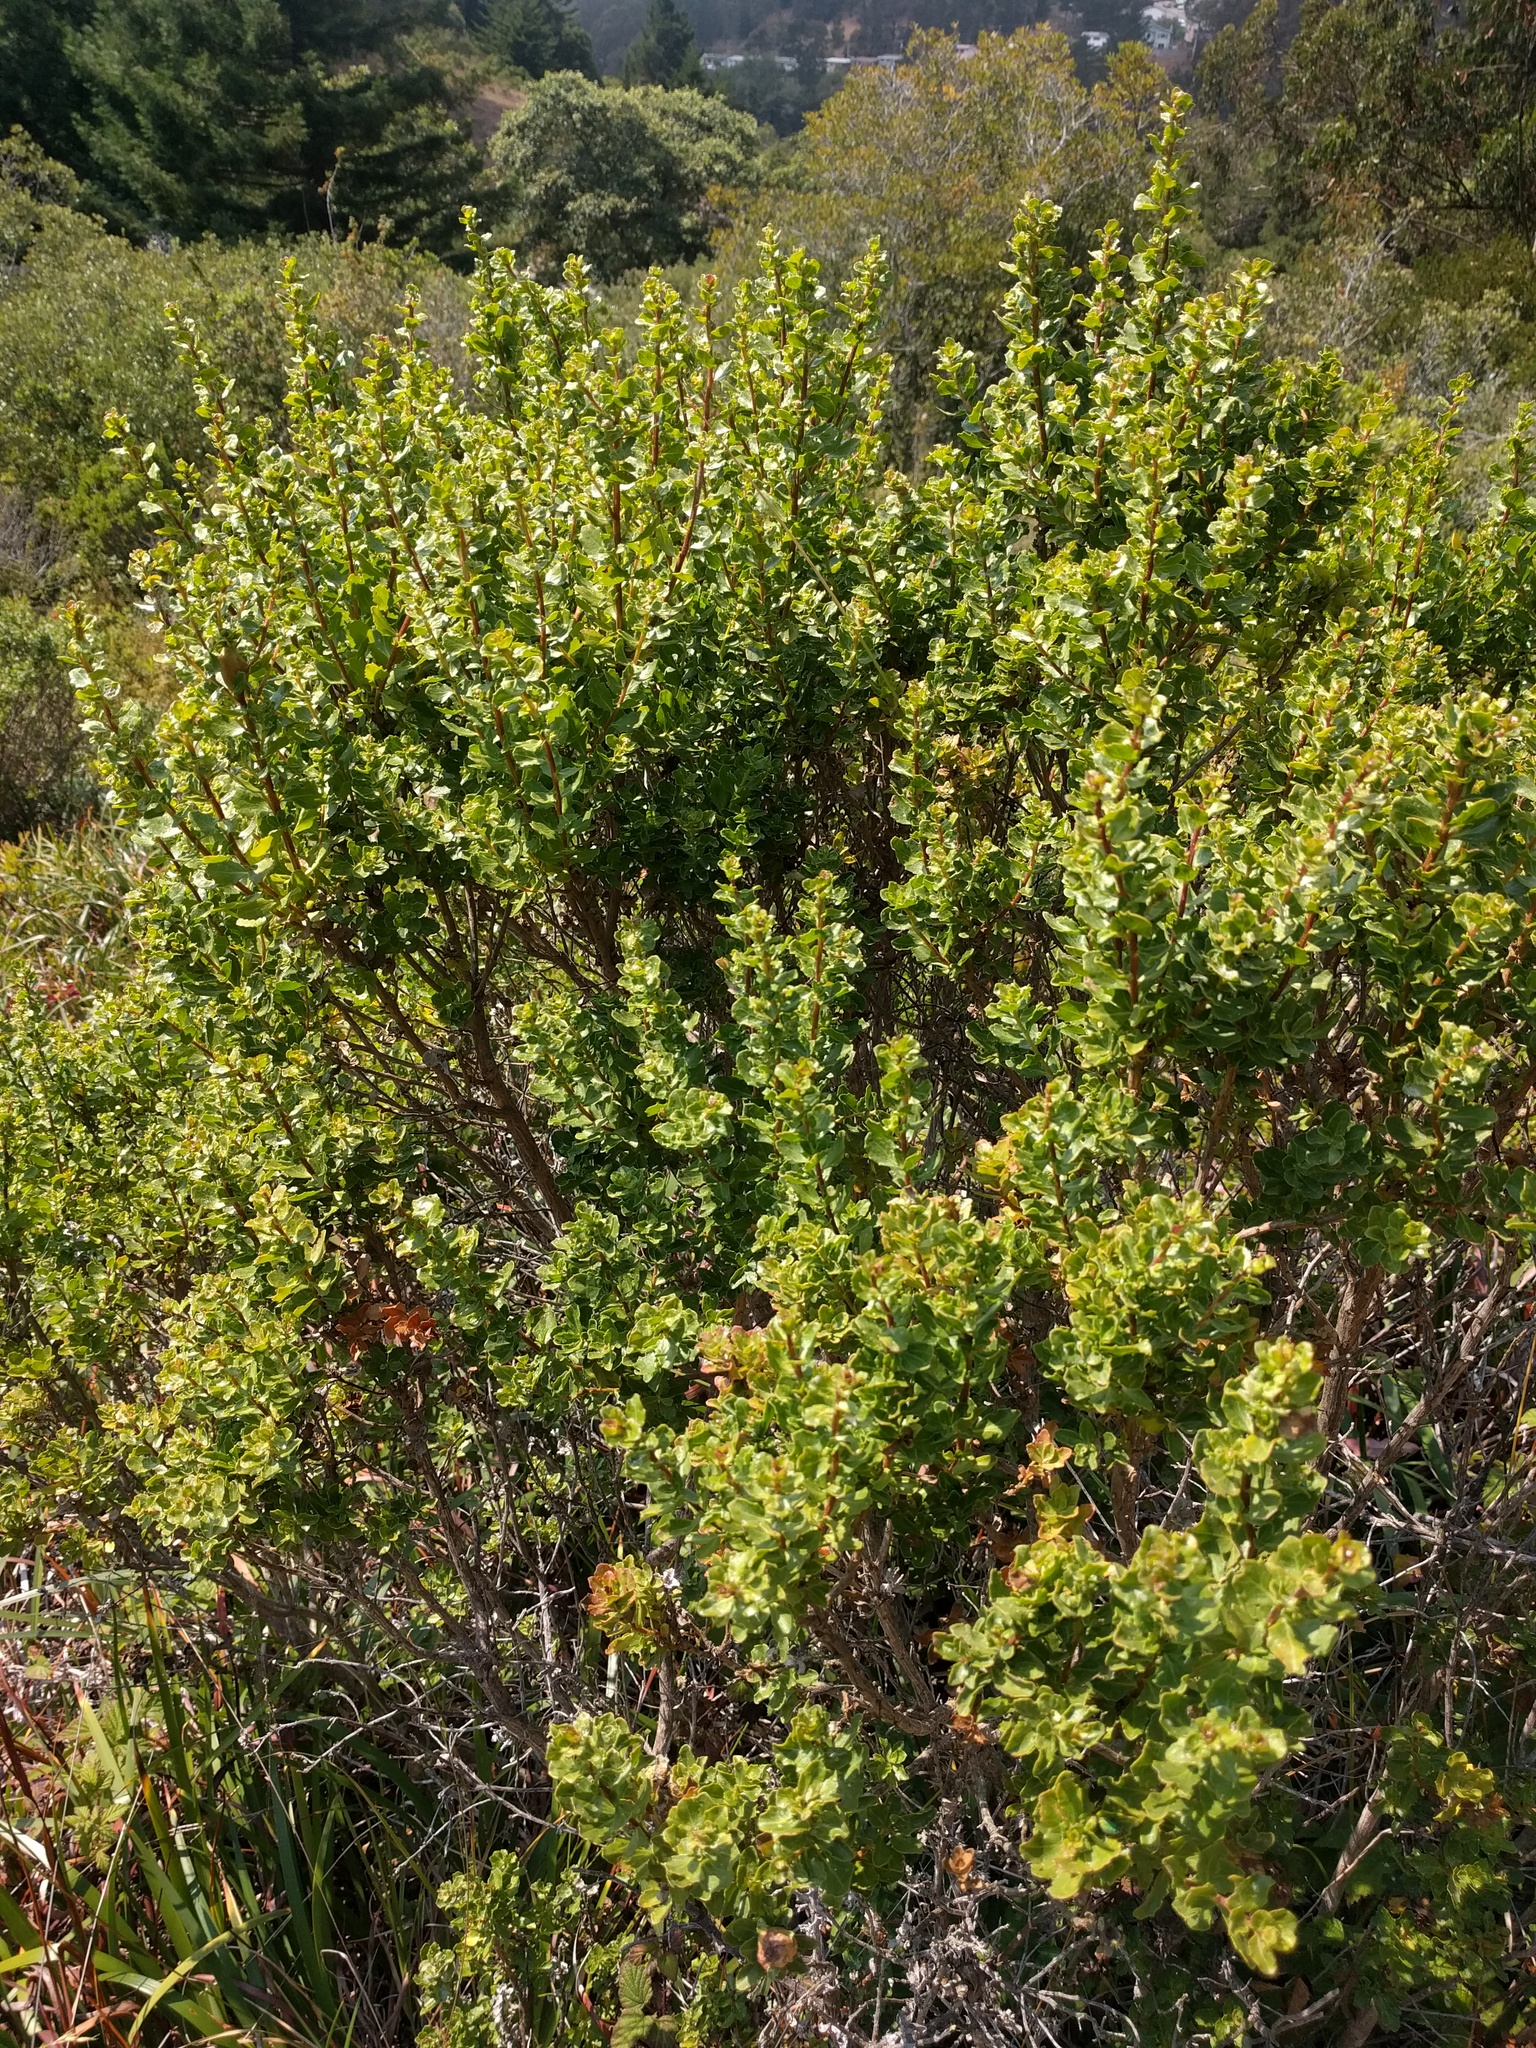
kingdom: Plantae
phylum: Tracheophyta
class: Magnoliopsida
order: Asterales
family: Asteraceae
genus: Baccharis
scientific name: Baccharis pilularis
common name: Coyotebrush
